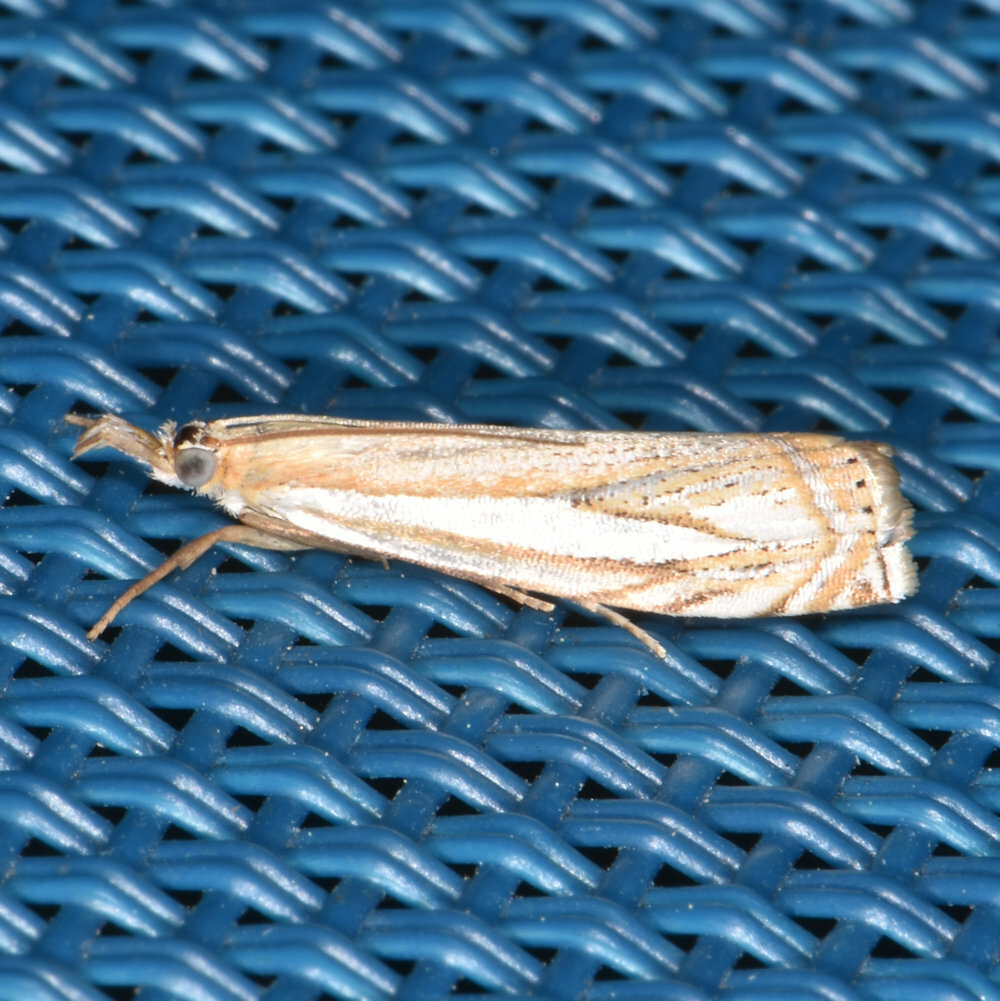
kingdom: Animalia
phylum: Arthropoda
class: Insecta
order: Lepidoptera
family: Crambidae
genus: Crambus
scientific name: Crambus saltuellus
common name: Pasture grass-veneer
